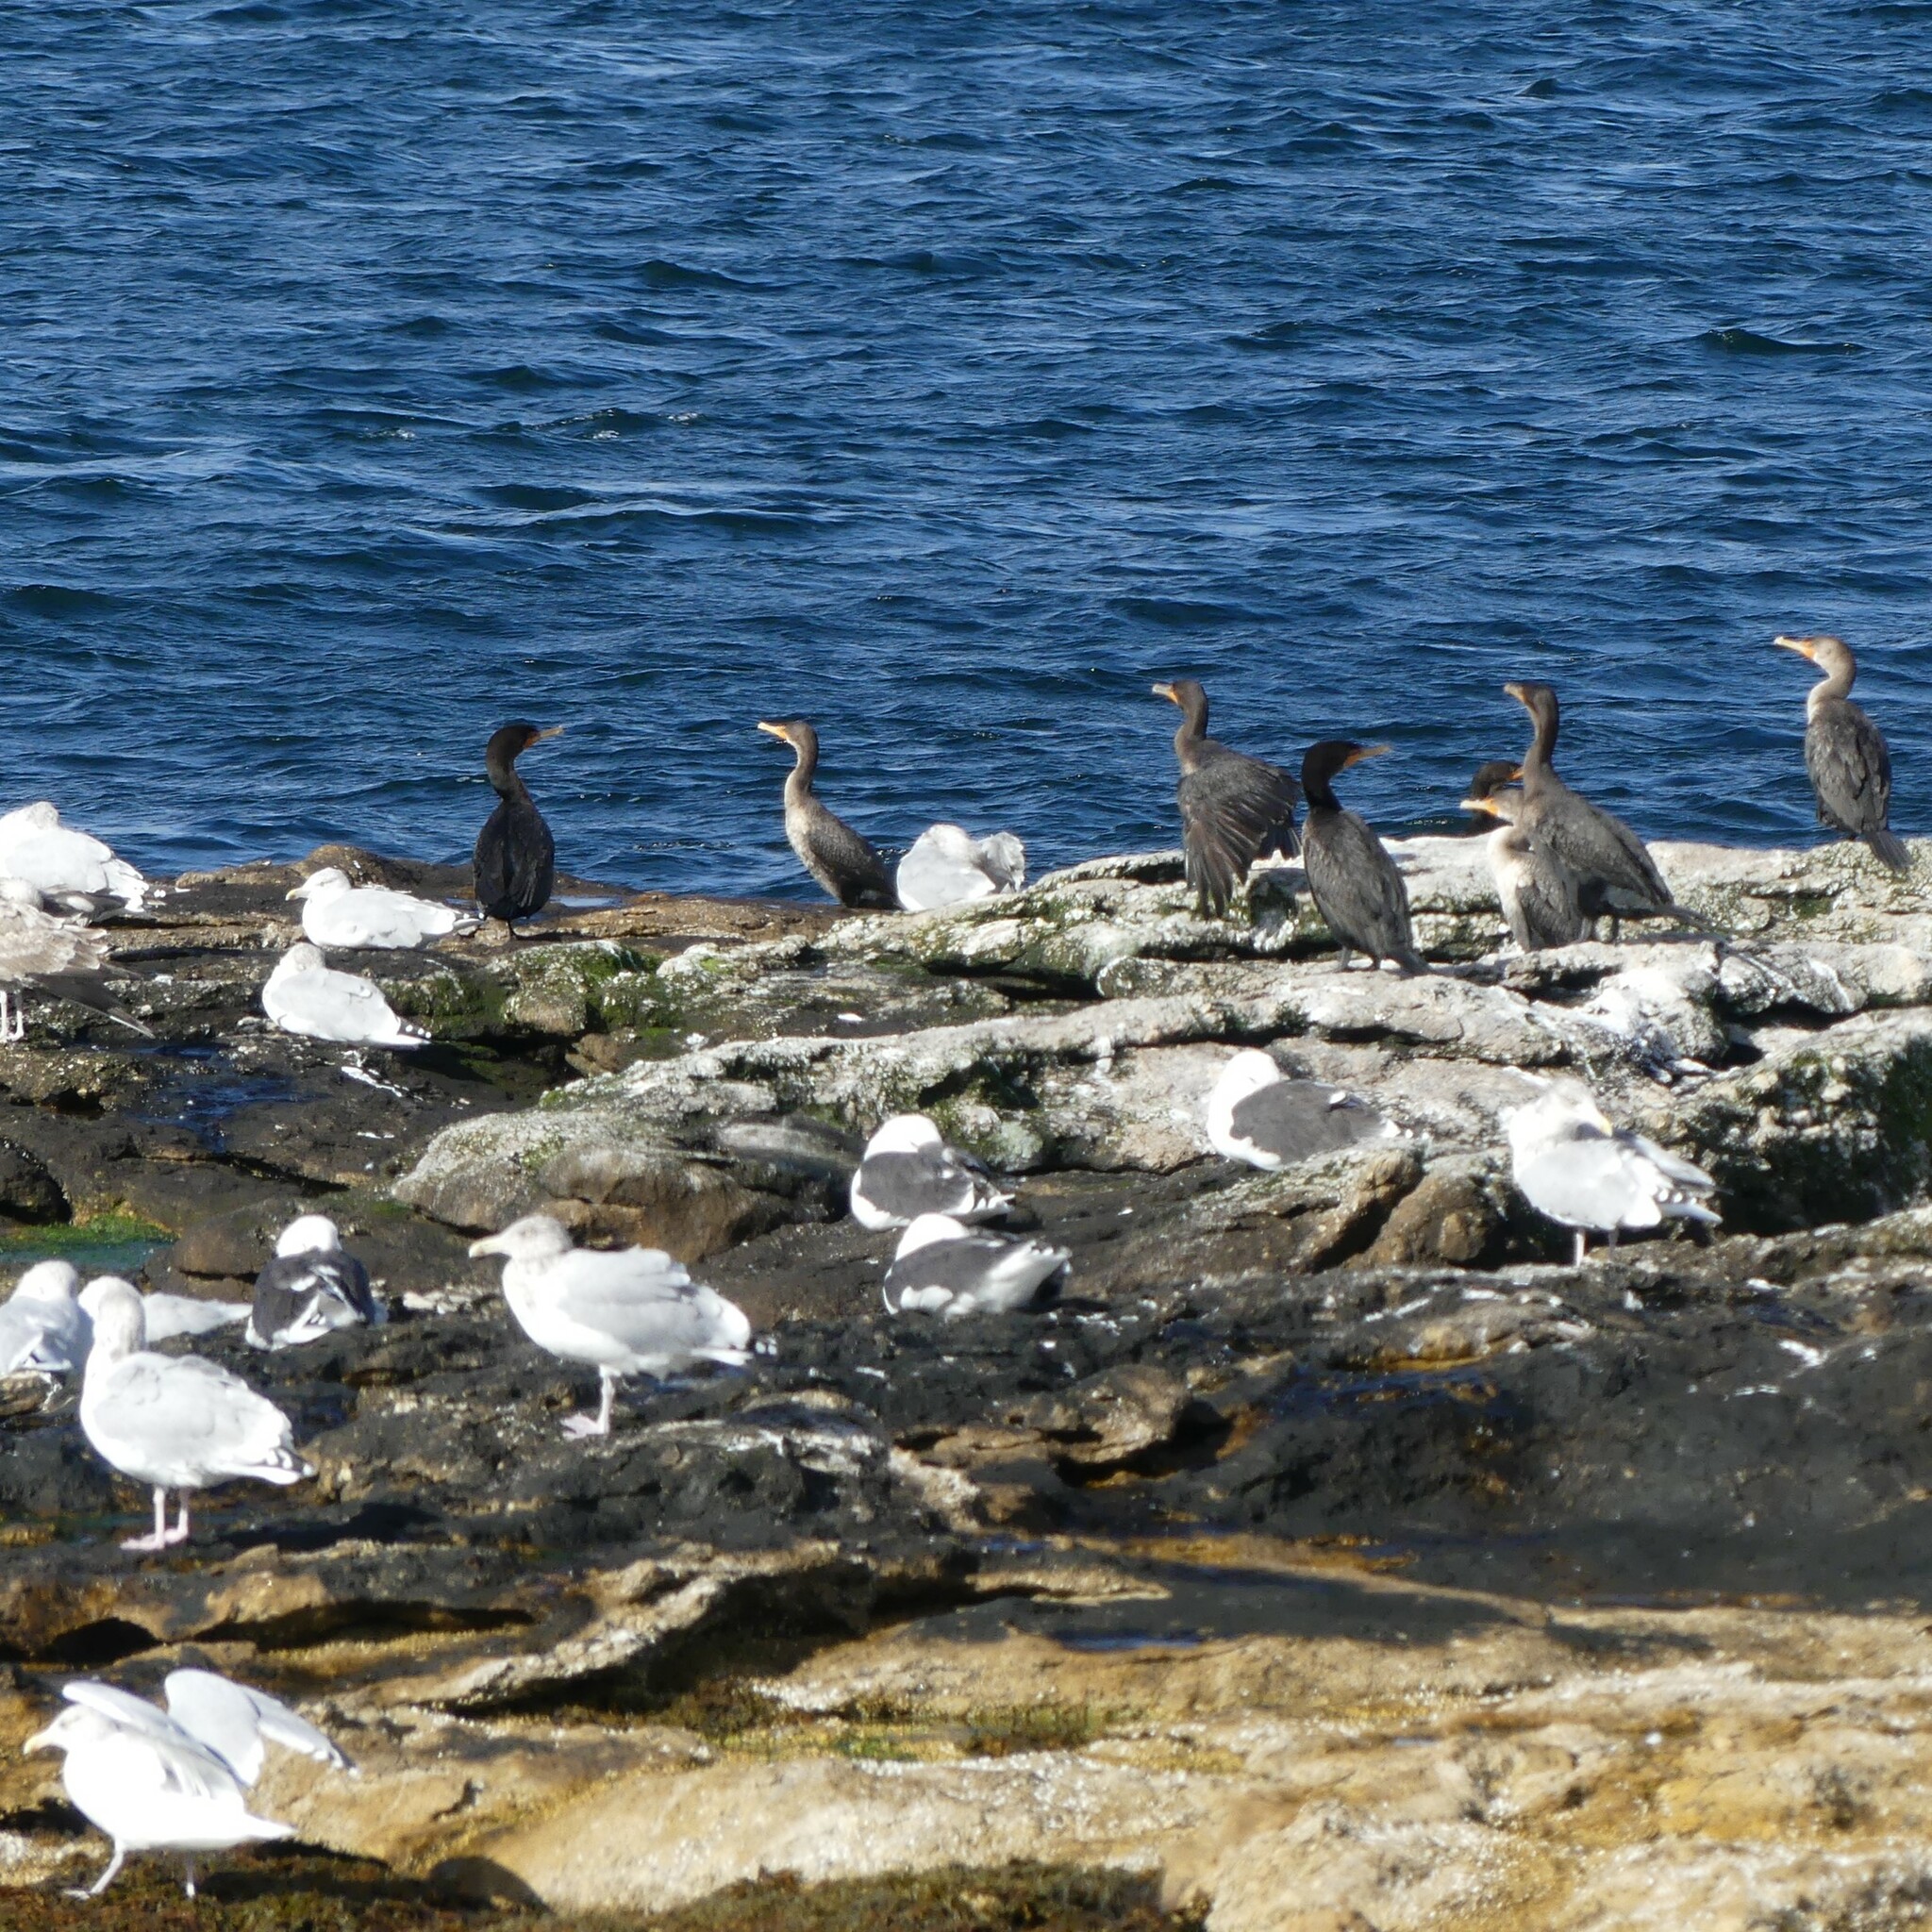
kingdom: Animalia
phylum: Chordata
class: Aves
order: Charadriiformes
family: Laridae
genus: Larus
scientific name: Larus marinus
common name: Great black-backed gull
